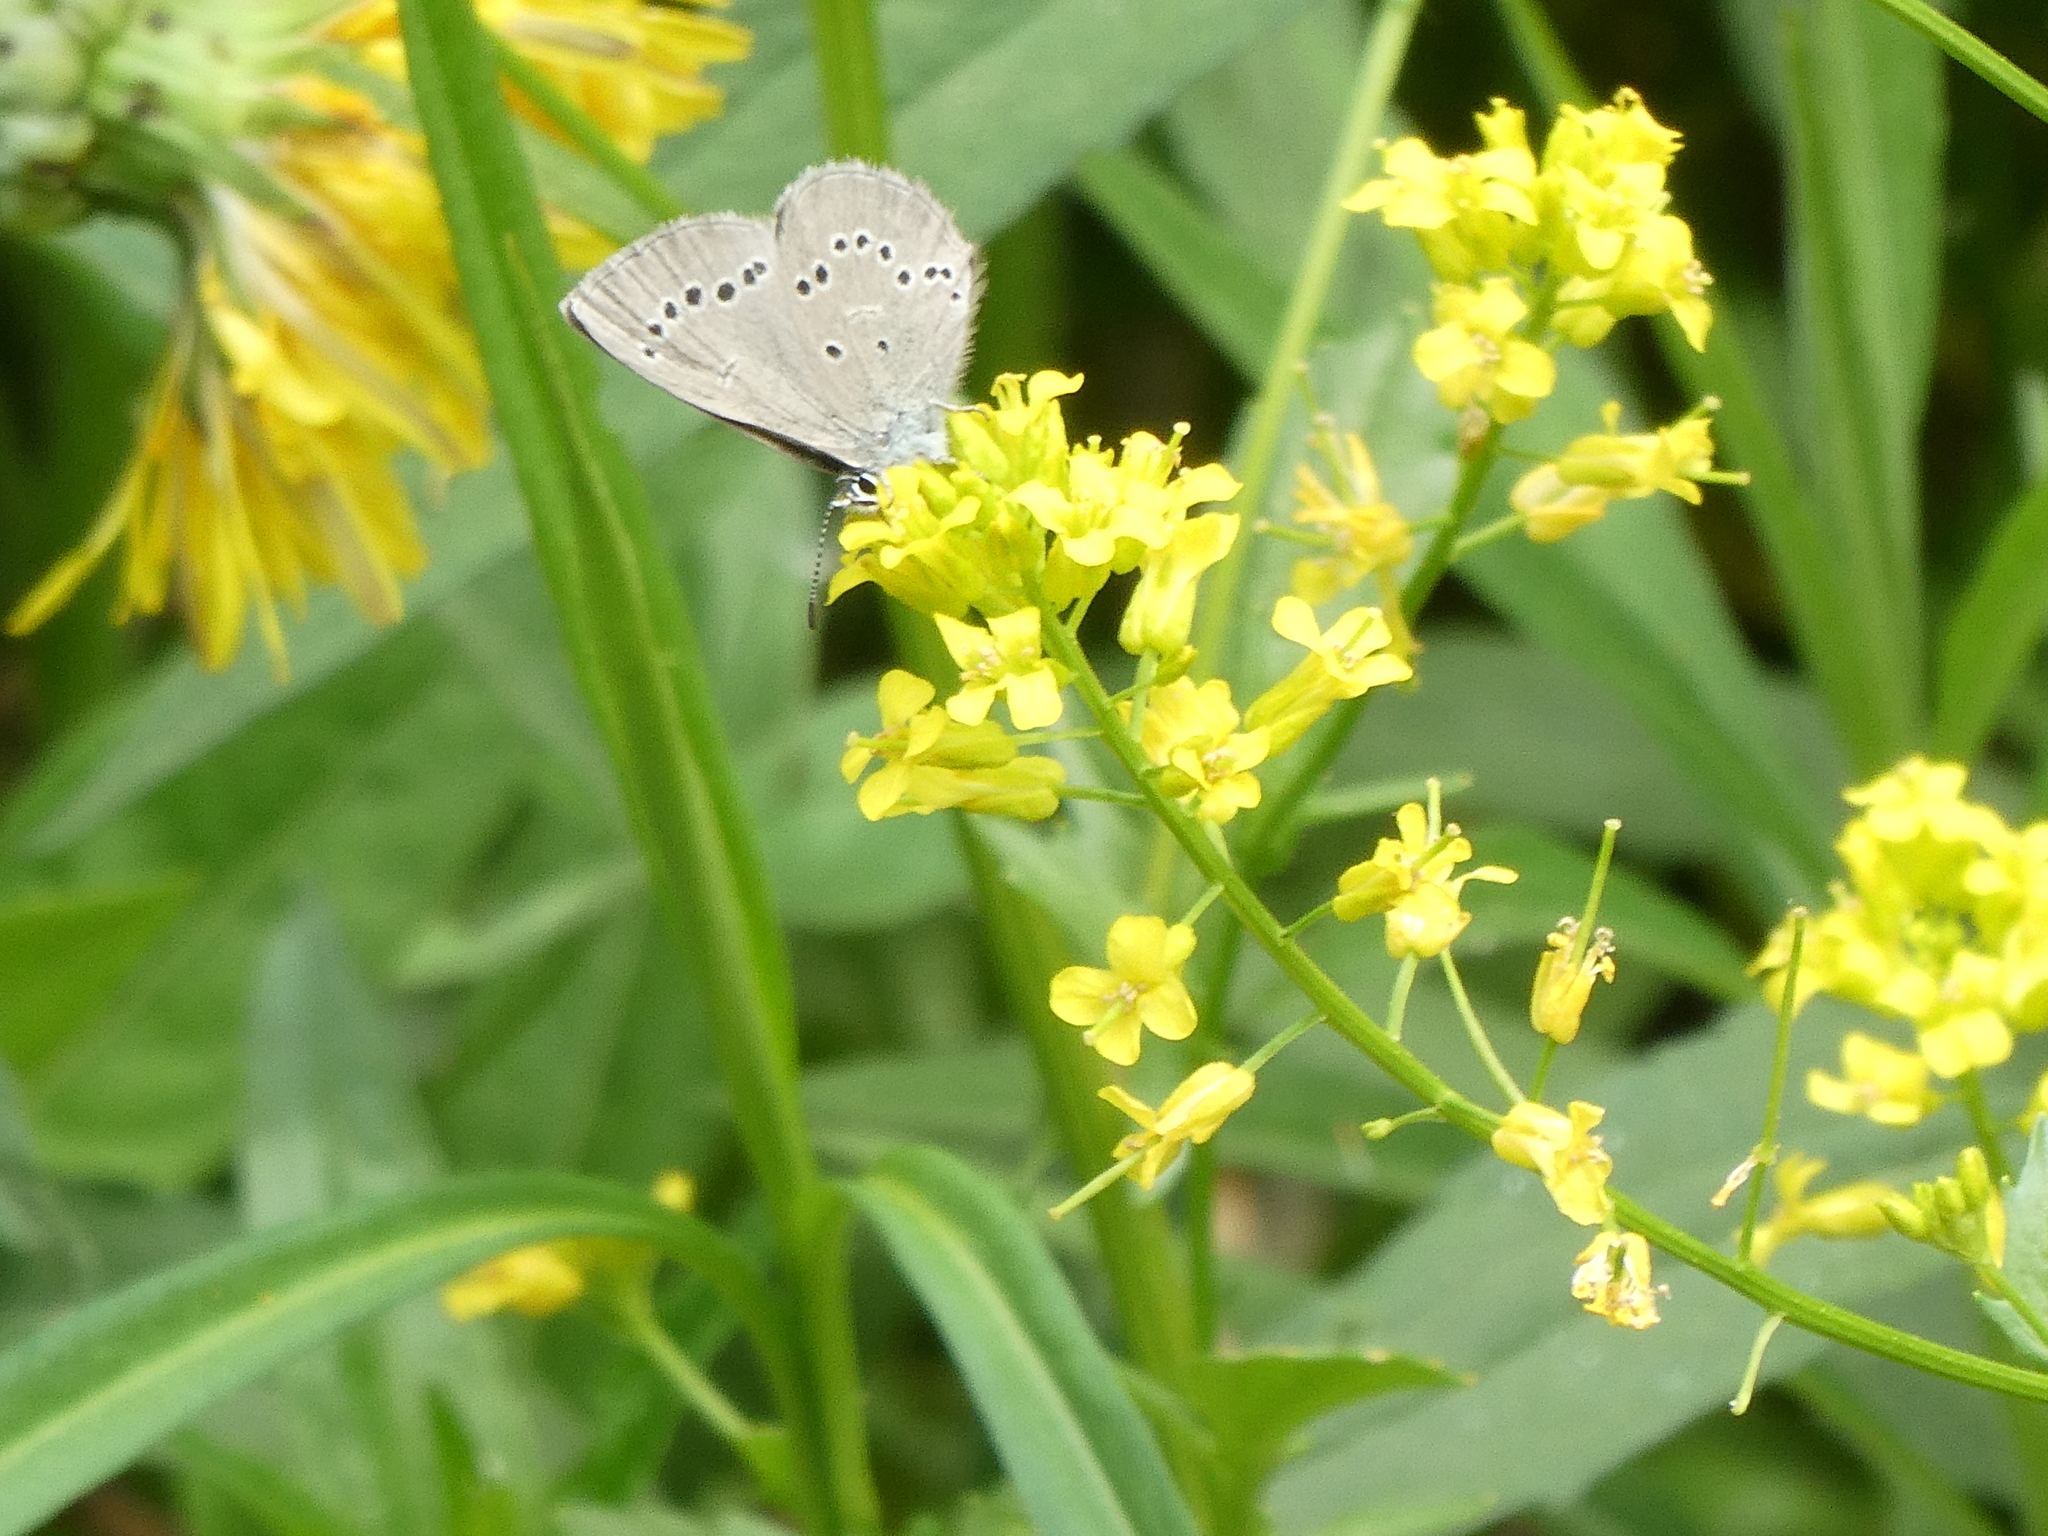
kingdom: Animalia
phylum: Arthropoda
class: Insecta
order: Lepidoptera
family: Lycaenidae
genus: Glaucopsyche
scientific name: Glaucopsyche lygdamus
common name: Silvery blue
